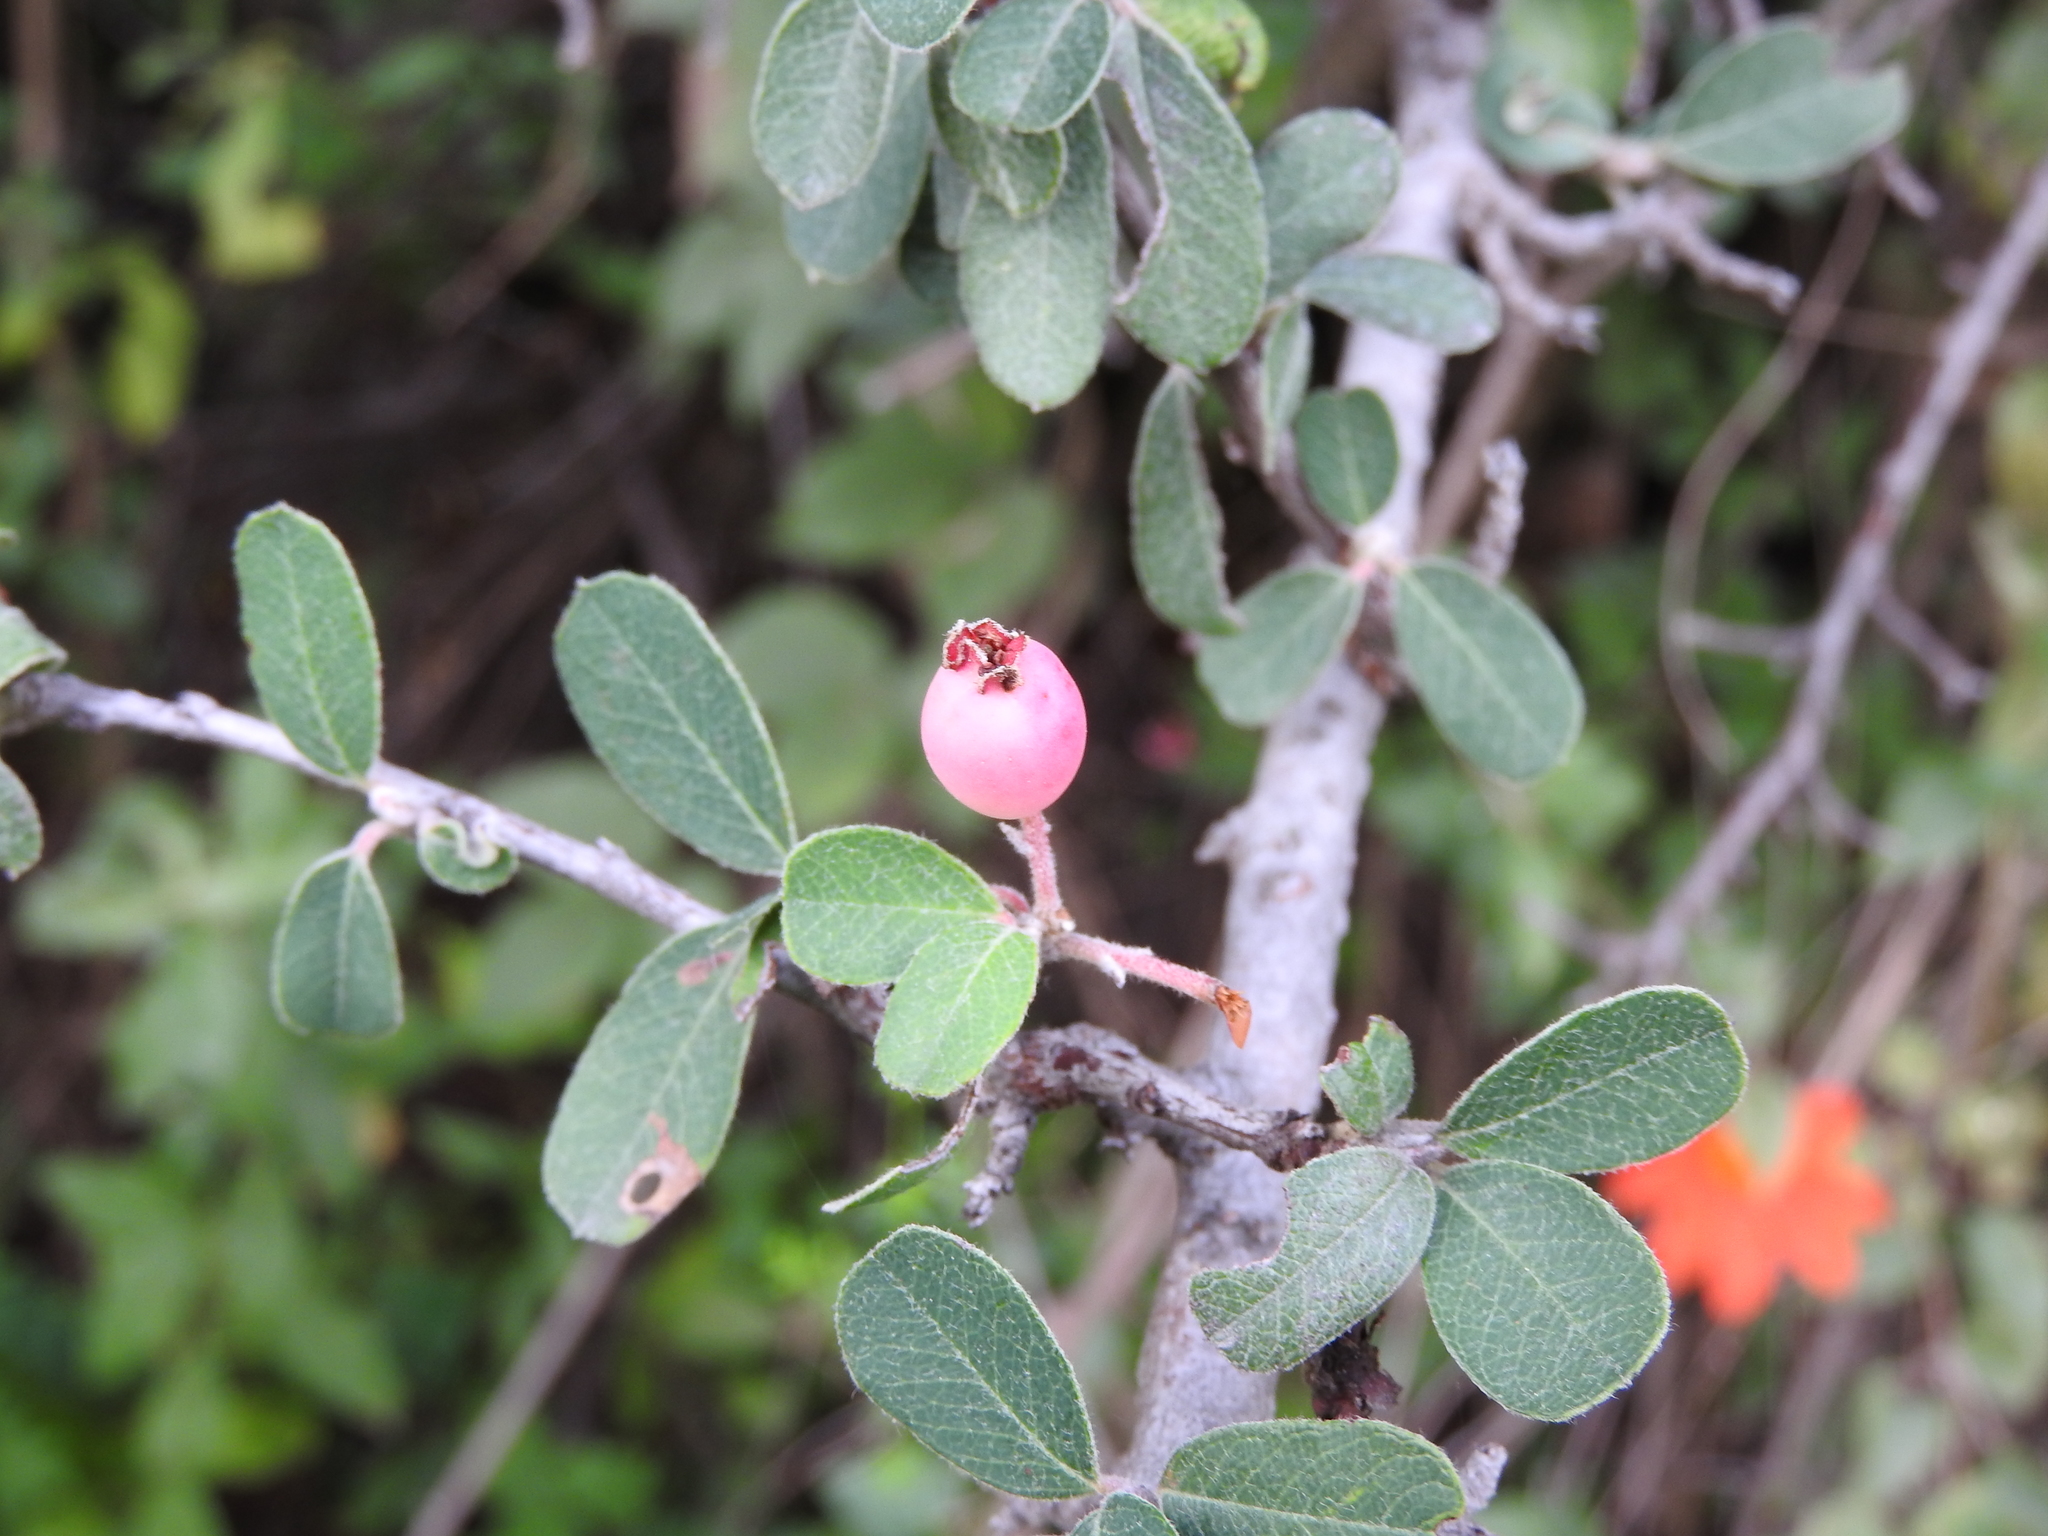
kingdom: Plantae
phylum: Tracheophyta
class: Magnoliopsida
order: Rosales
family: Rosaceae
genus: Malacomeles
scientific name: Malacomeles denticulata
